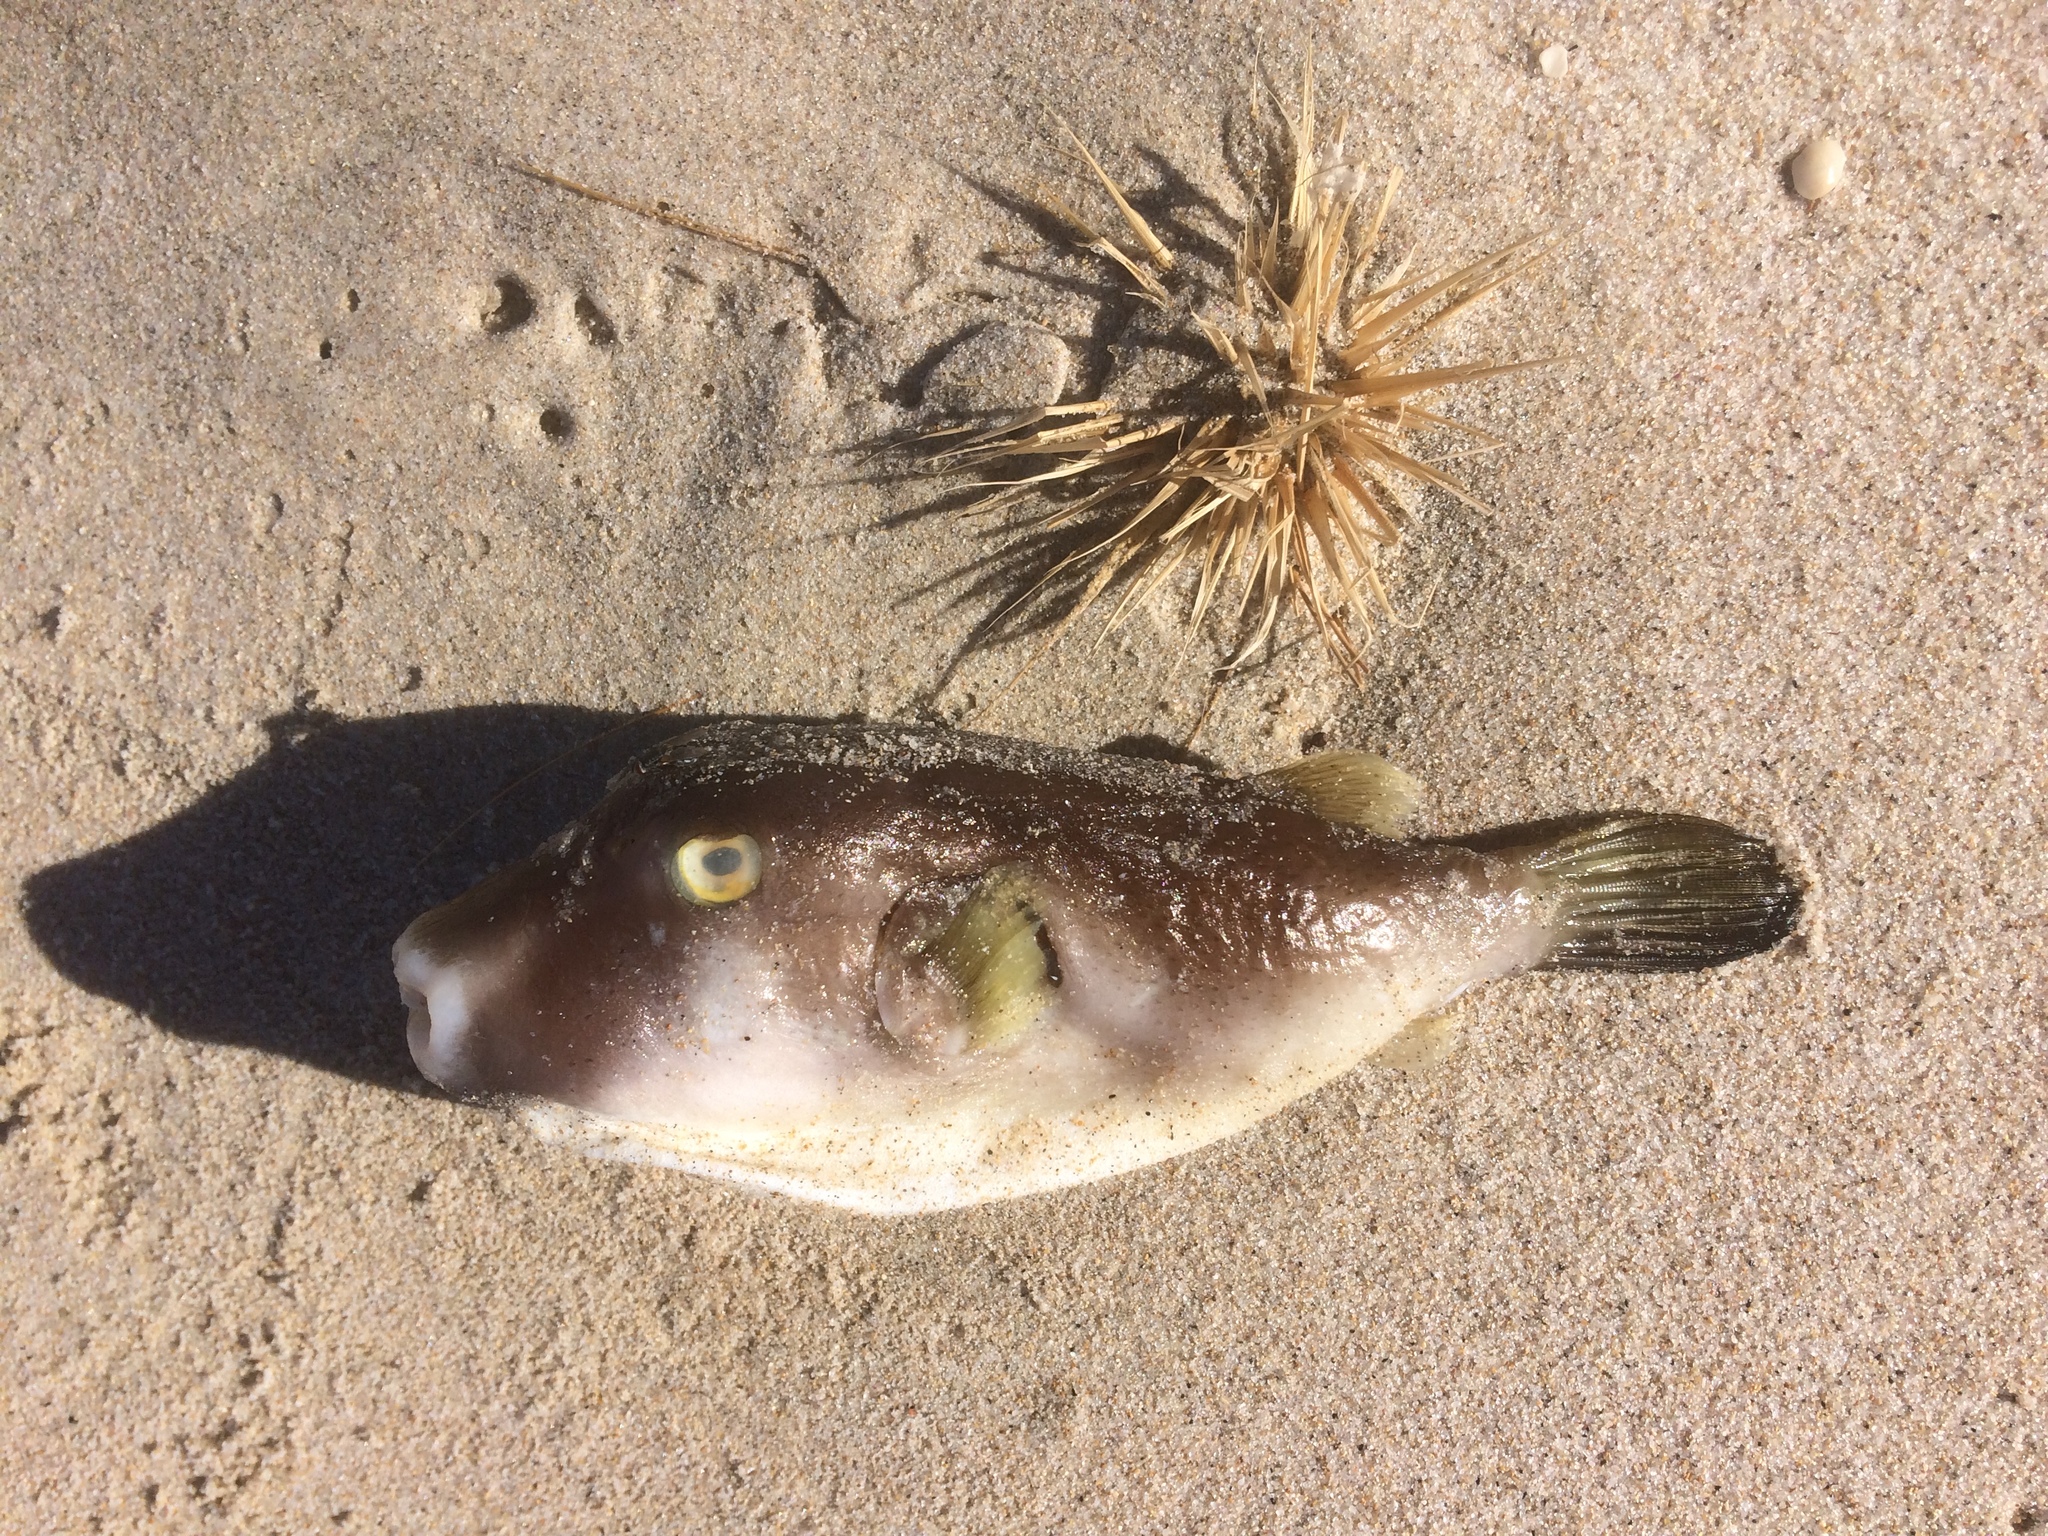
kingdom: Animalia
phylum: Chordata
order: Tetraodontiformes
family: Tetraodontidae
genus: Omegophora
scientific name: Omegophora armilla
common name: Ringed pufferfish
